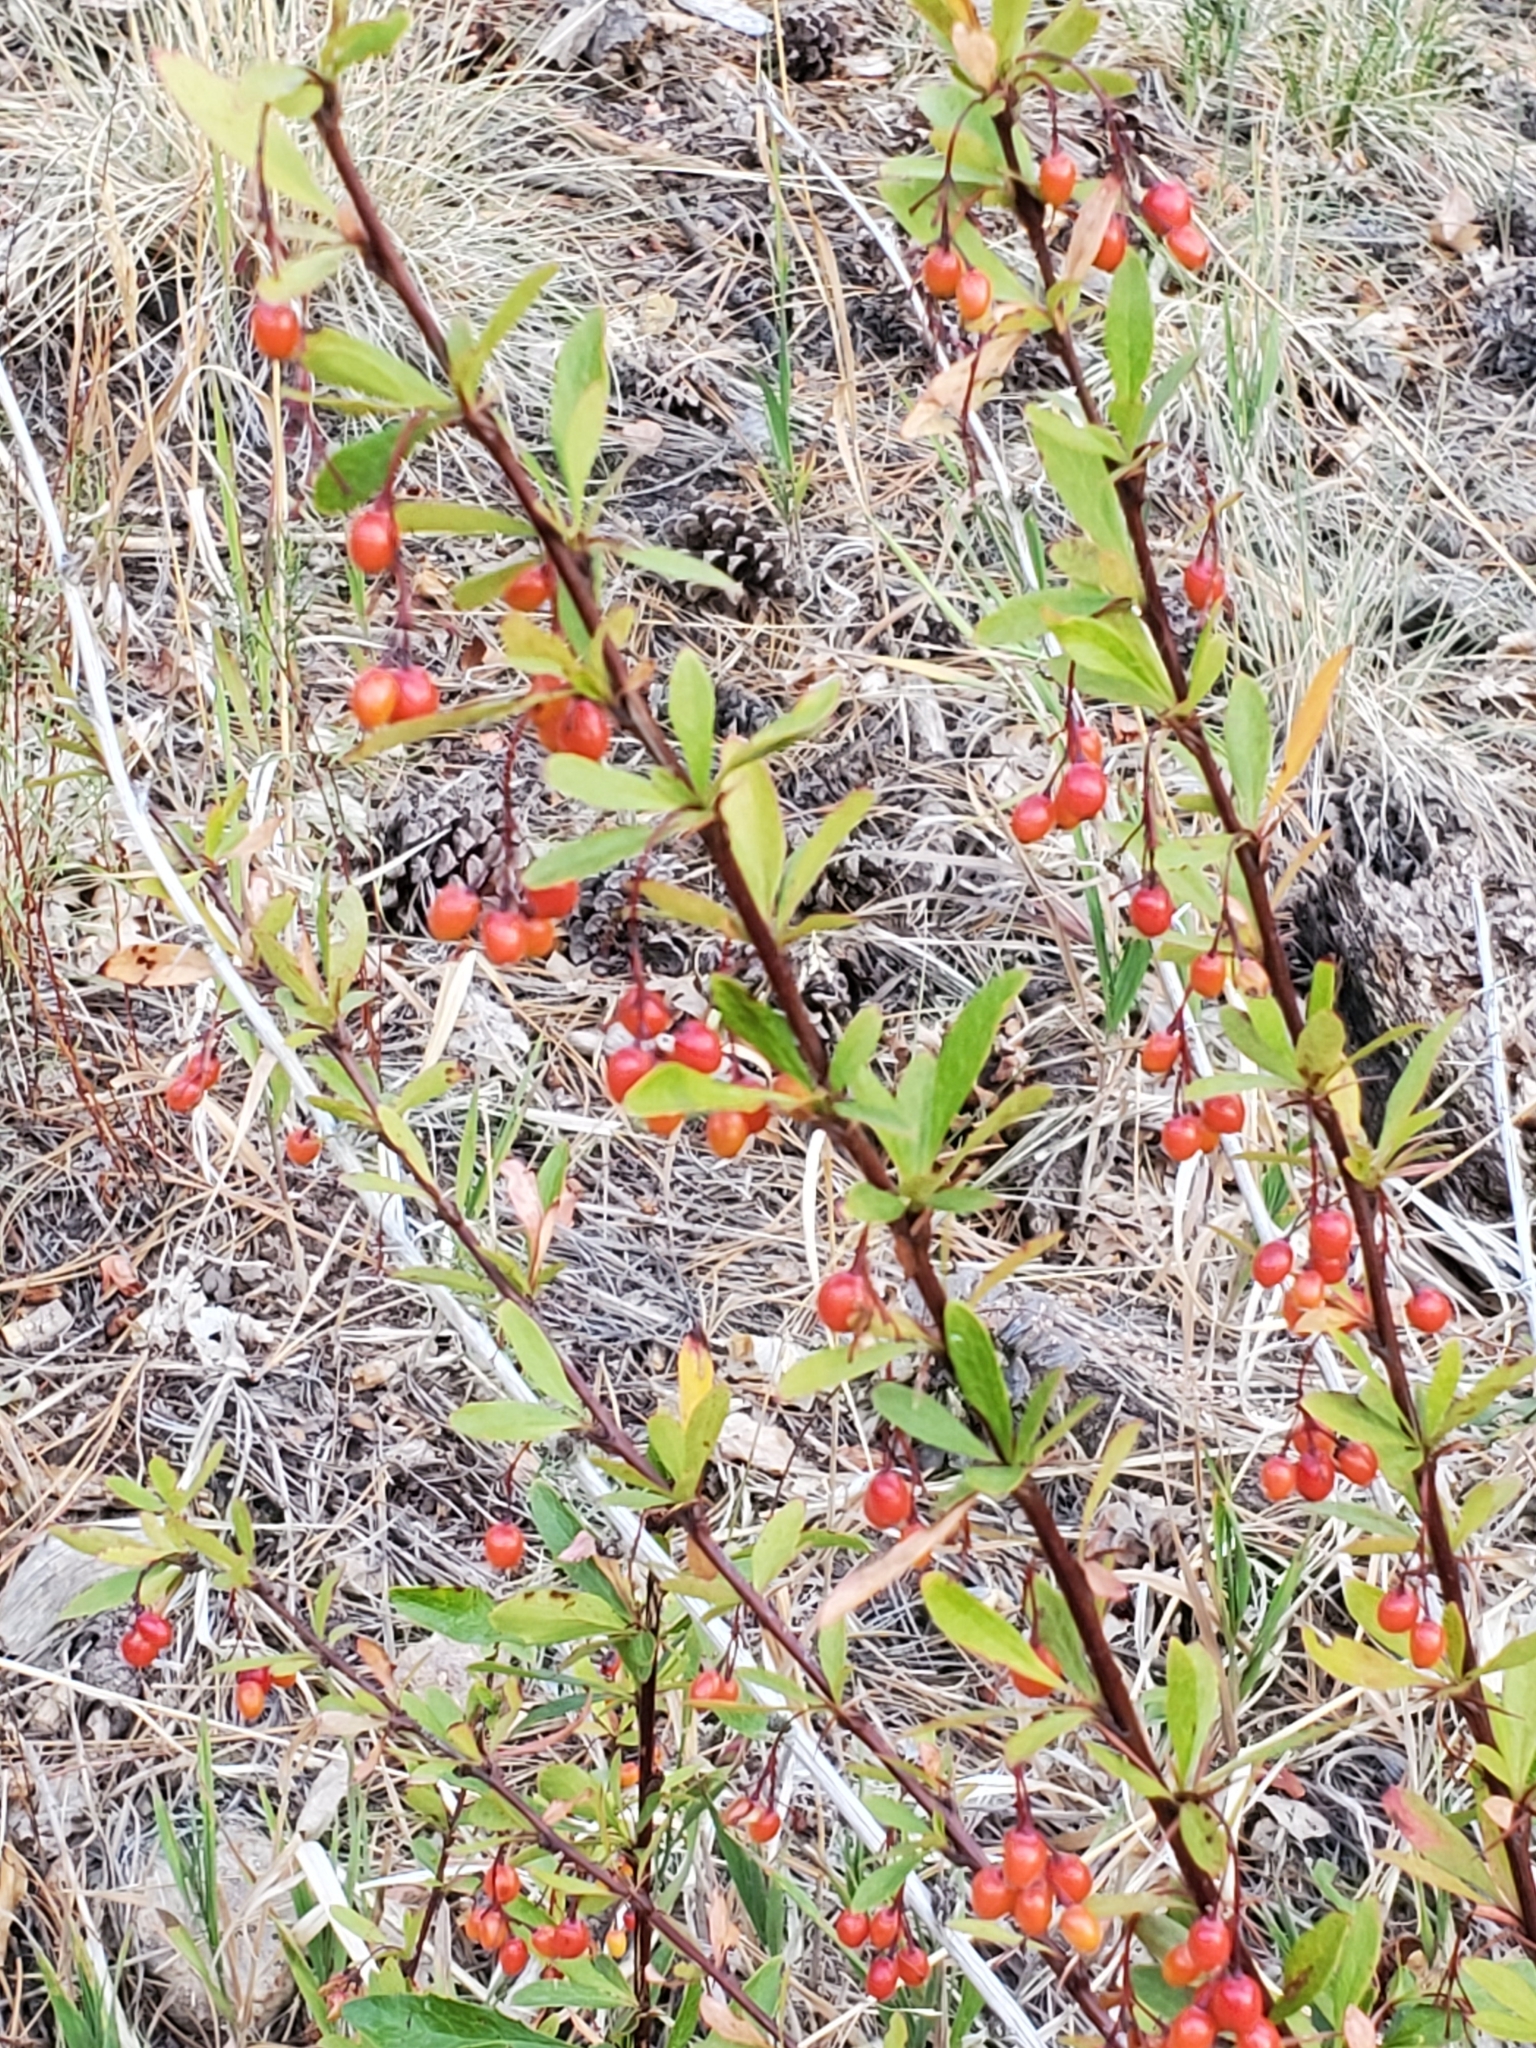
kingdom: Plantae
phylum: Tracheophyta
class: Magnoliopsida
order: Ranunculales
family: Berberidaceae
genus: Berberis
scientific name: Berberis fendleri
